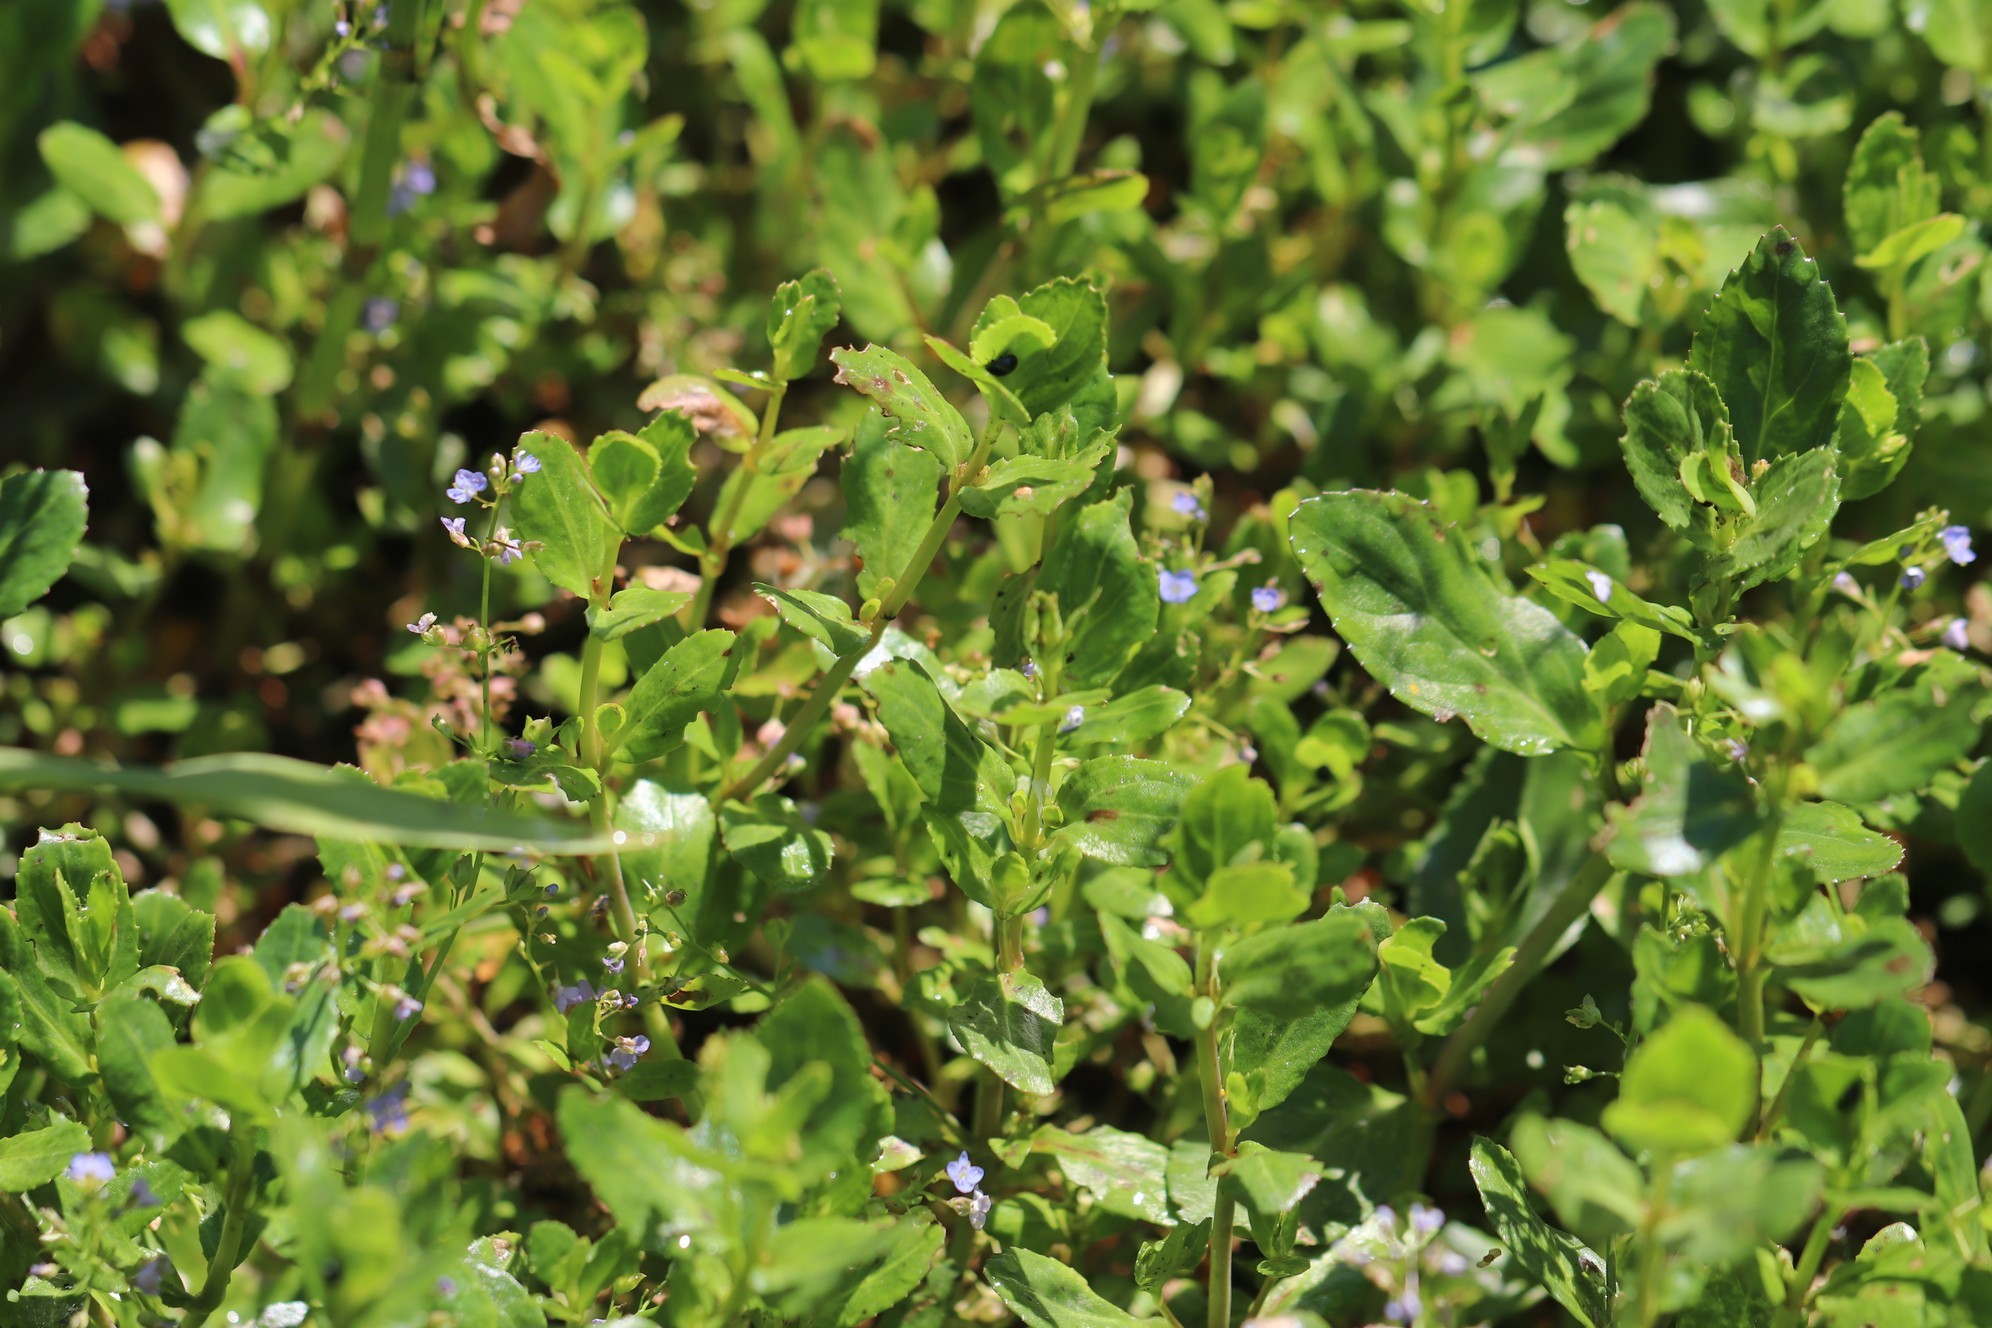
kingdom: Plantae
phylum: Tracheophyta
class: Magnoliopsida
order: Lamiales
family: Plantaginaceae
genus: Veronica
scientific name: Veronica beccabunga
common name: Brooklime
